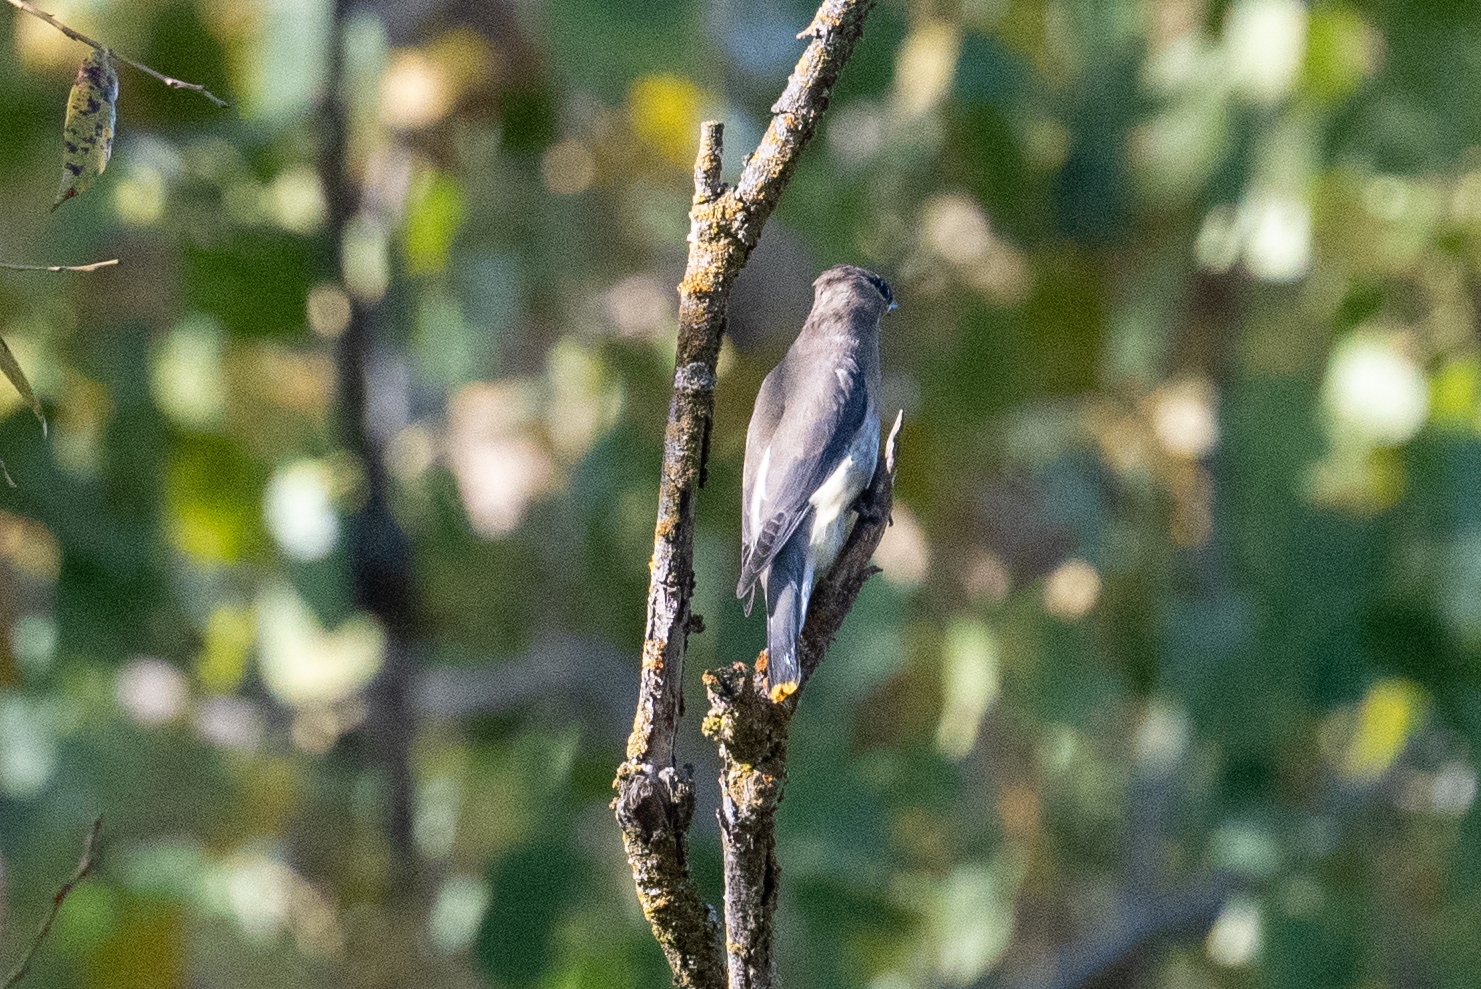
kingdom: Animalia
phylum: Chordata
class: Aves
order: Passeriformes
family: Bombycillidae
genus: Bombycilla
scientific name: Bombycilla cedrorum
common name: Cedar waxwing
